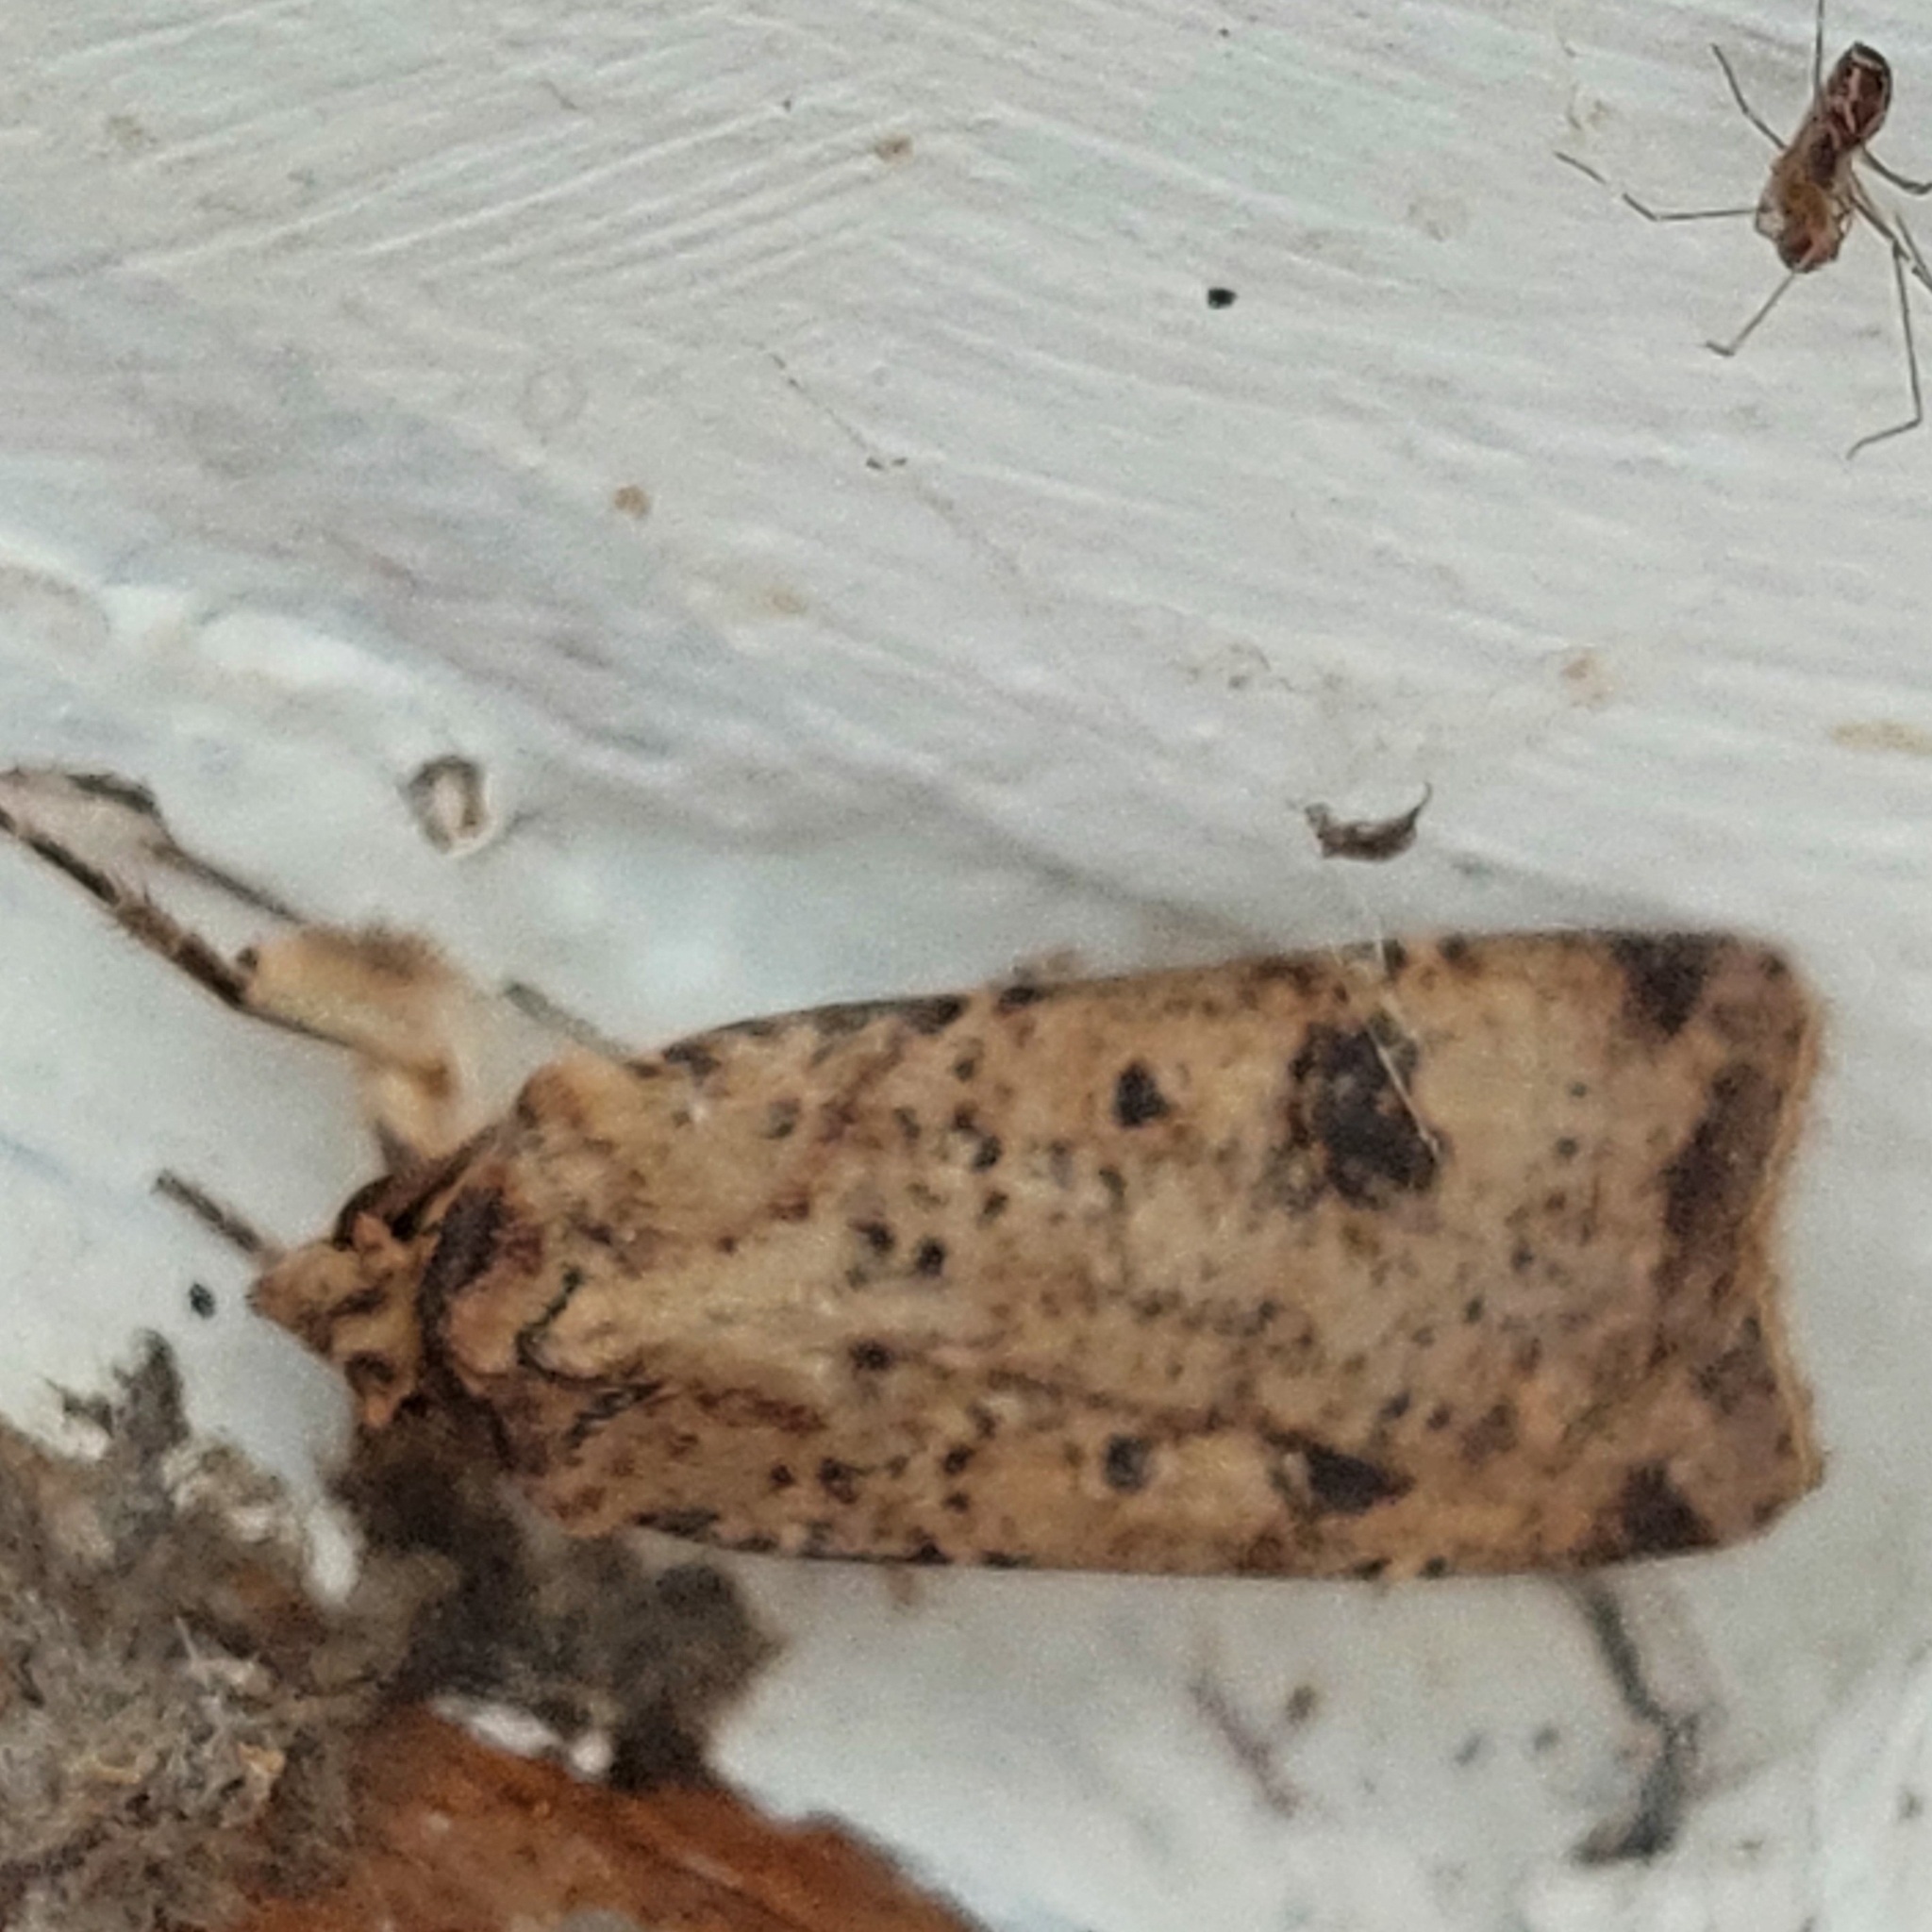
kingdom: Animalia
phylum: Arthropoda
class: Insecta
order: Lepidoptera
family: Noctuidae
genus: Agrotis
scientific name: Agrotis trux
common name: Crescent dart
